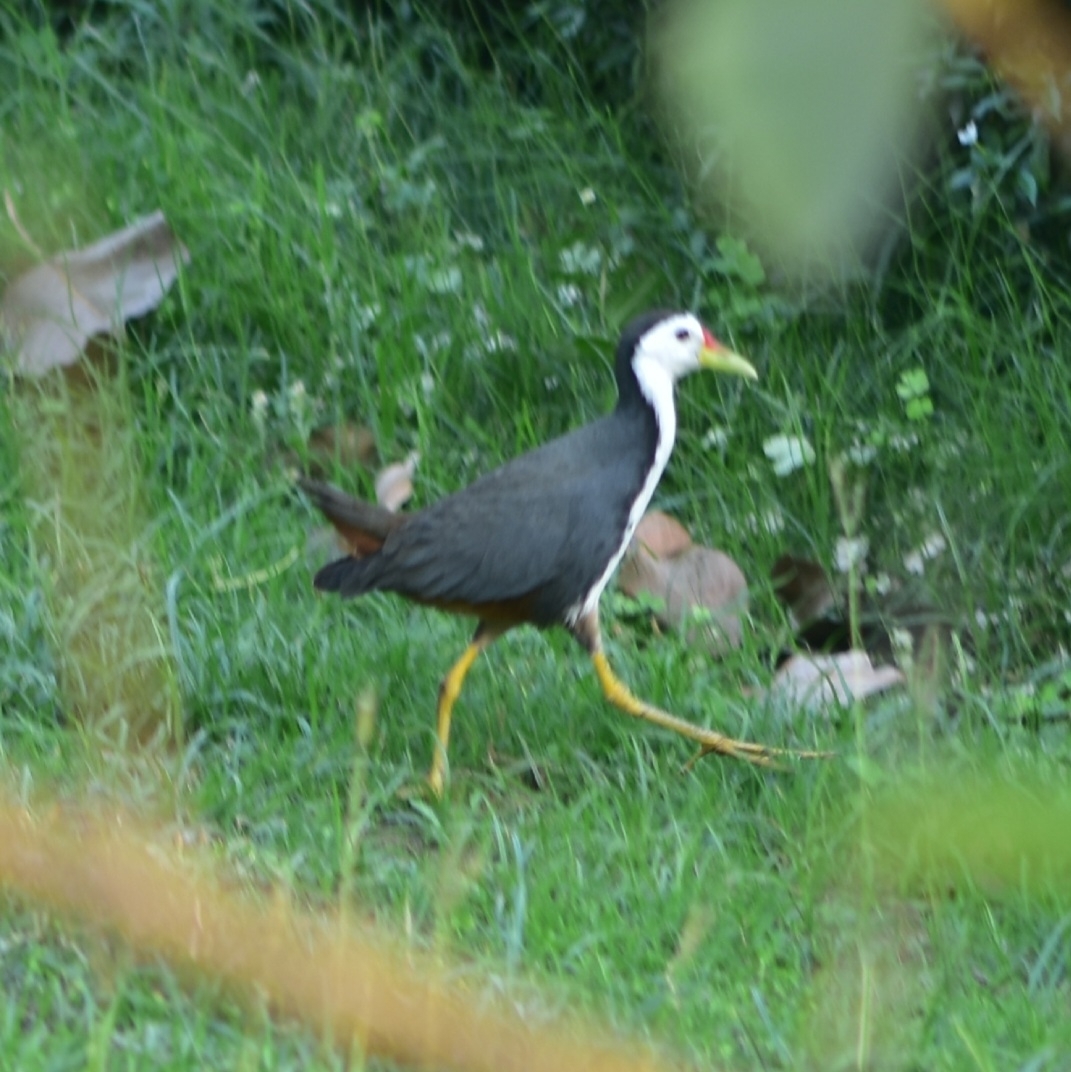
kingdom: Animalia
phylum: Chordata
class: Aves
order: Gruiformes
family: Rallidae
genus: Amaurornis
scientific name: Amaurornis phoenicurus
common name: White-breasted waterhen
